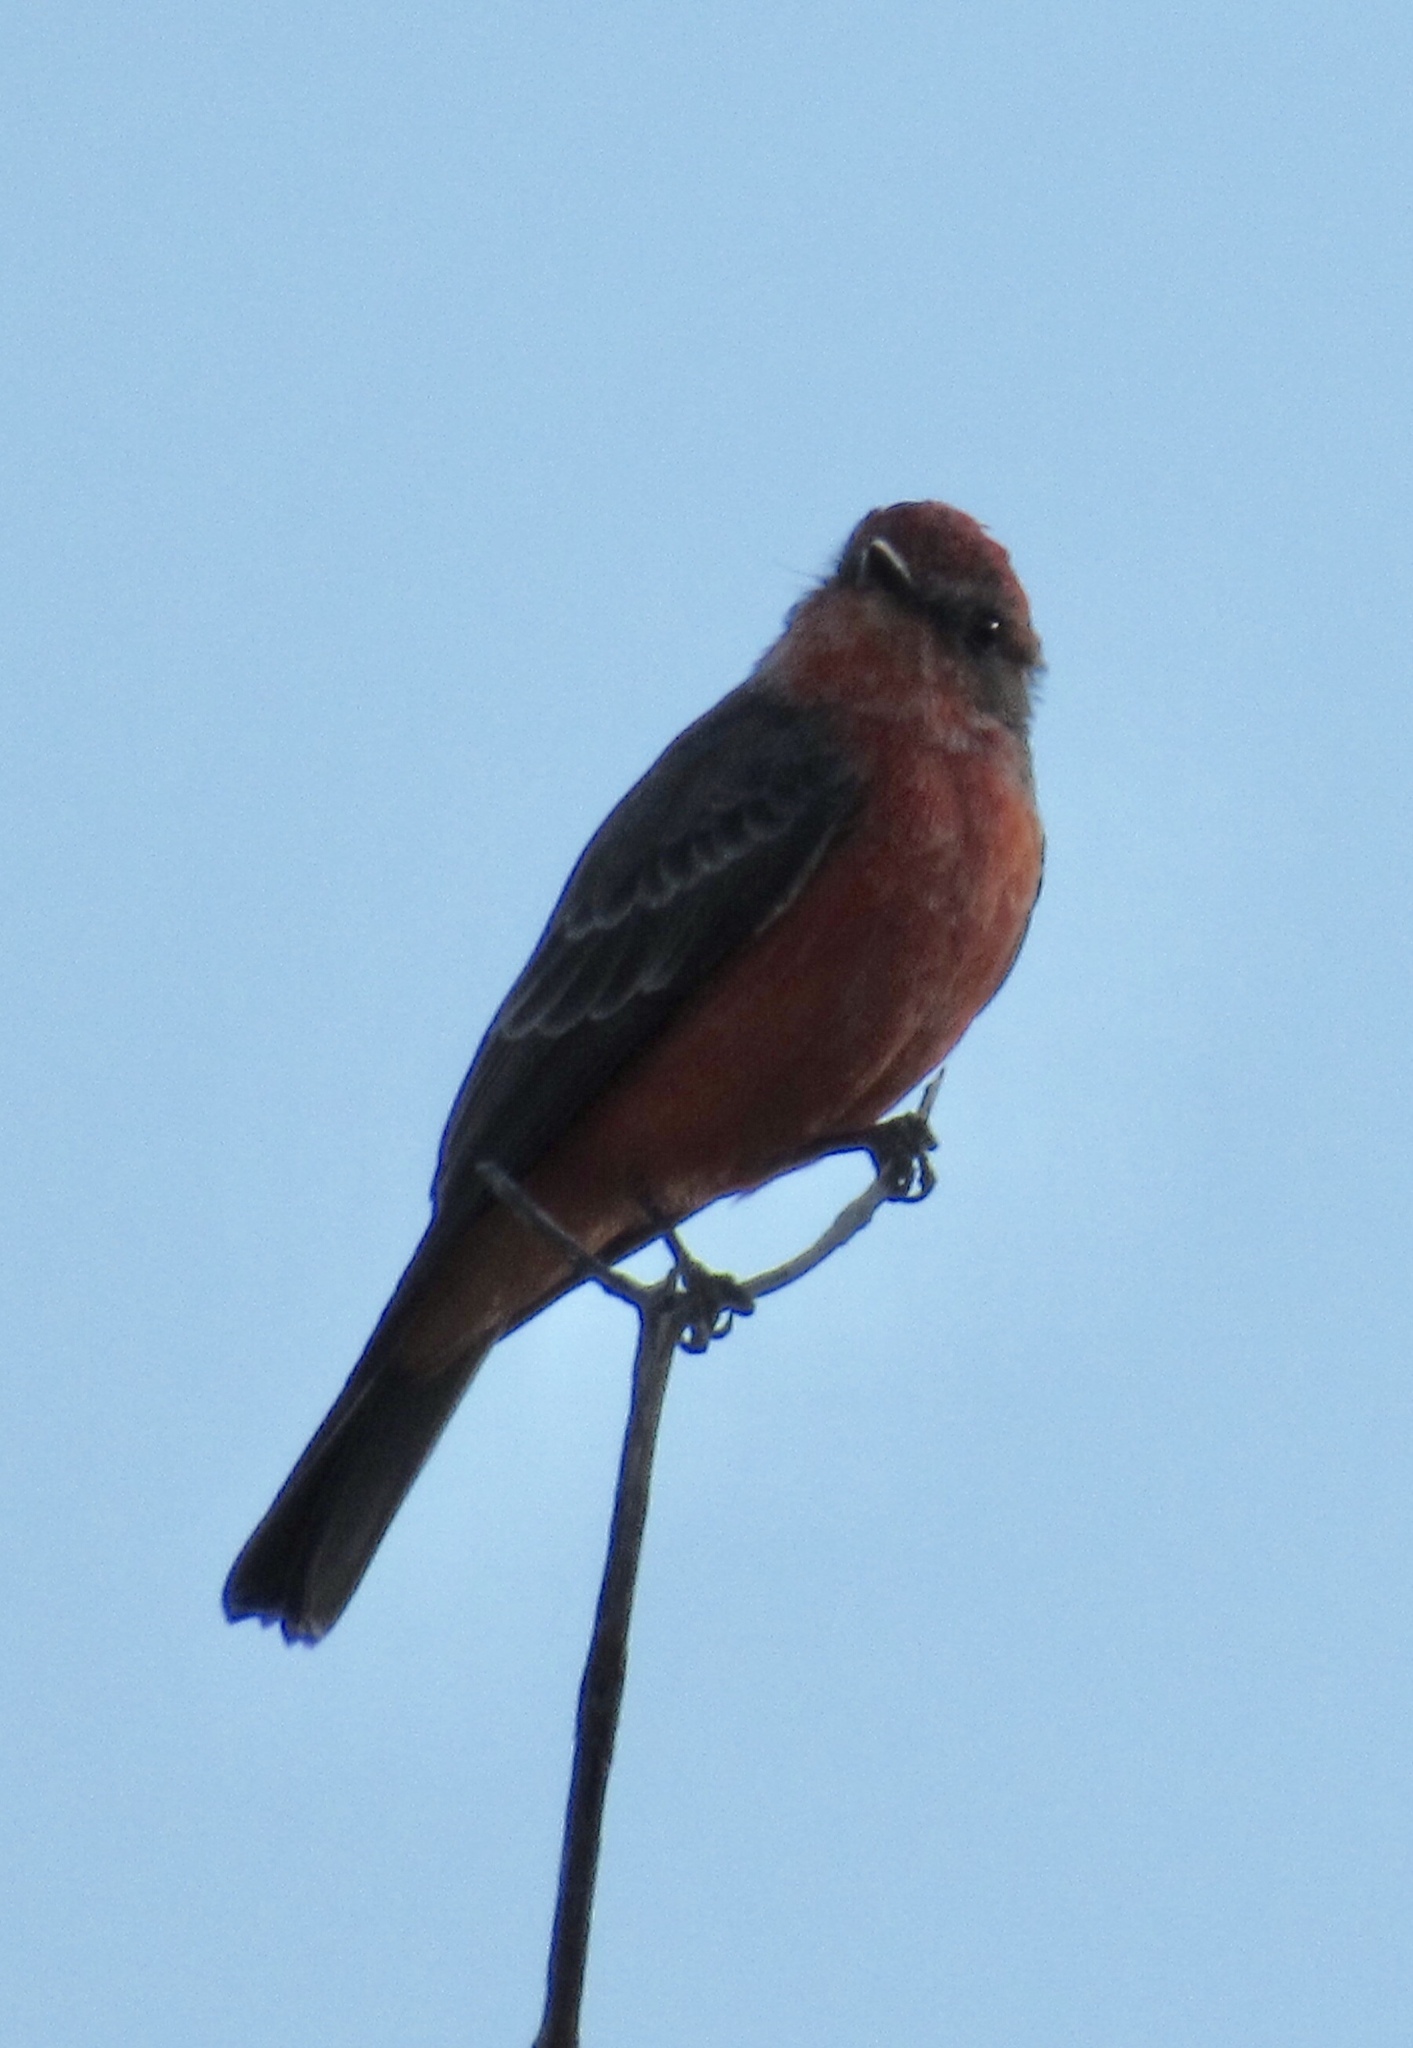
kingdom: Animalia
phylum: Chordata
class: Aves
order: Passeriformes
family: Tyrannidae
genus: Pyrocephalus
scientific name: Pyrocephalus rubinus
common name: Vermilion flycatcher
